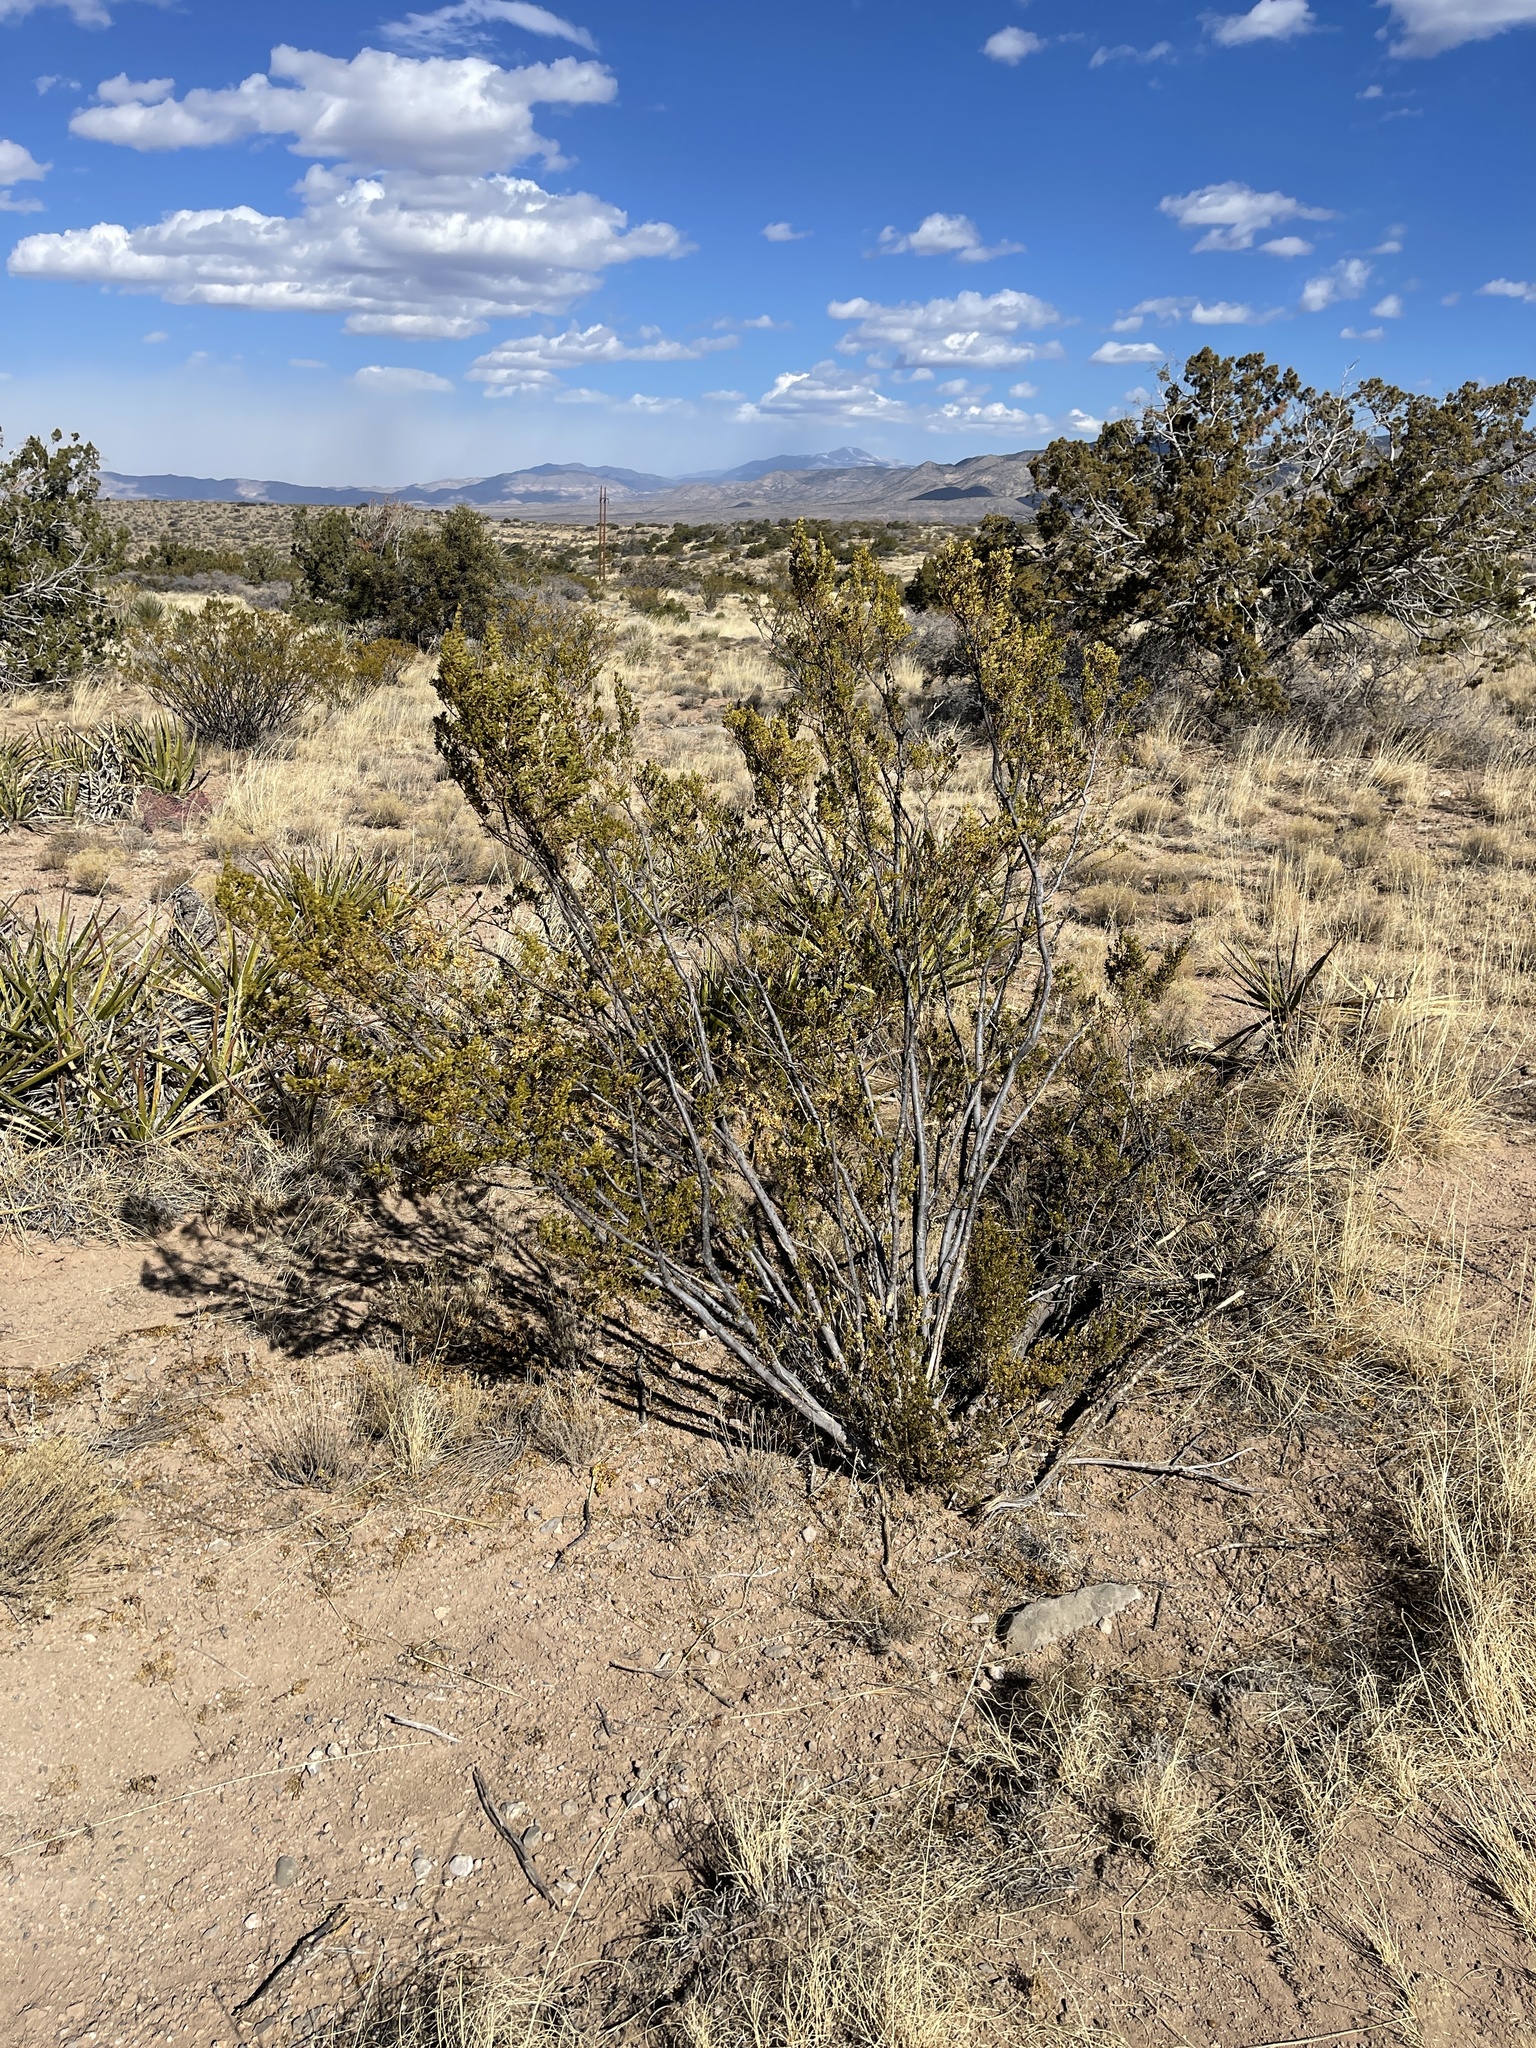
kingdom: Plantae
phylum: Tracheophyta
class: Magnoliopsida
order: Zygophyllales
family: Zygophyllaceae
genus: Larrea
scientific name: Larrea tridentata
